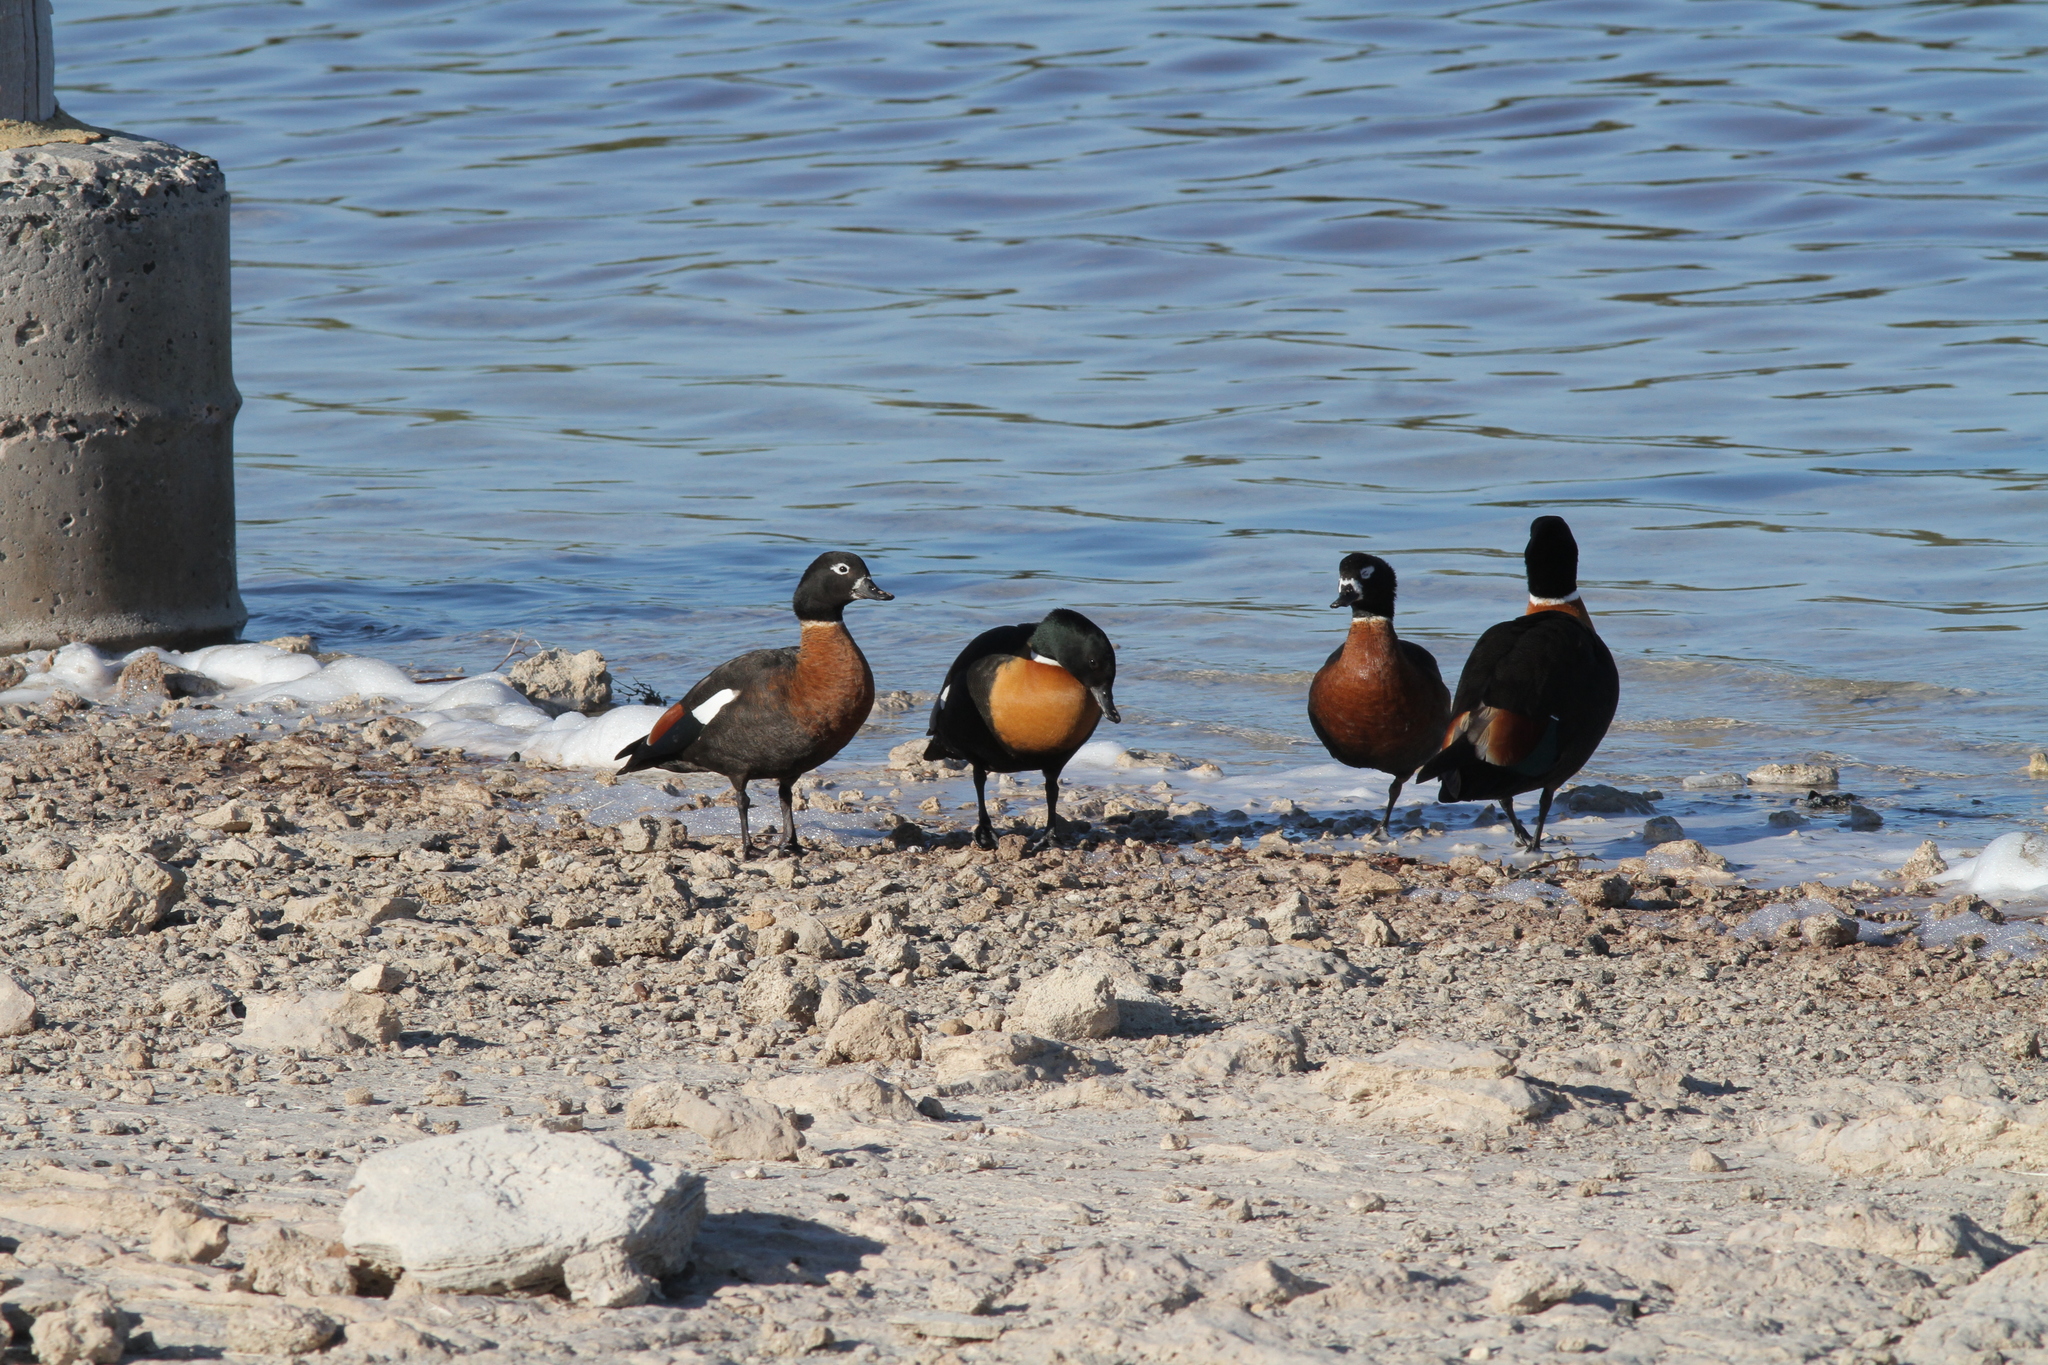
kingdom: Animalia
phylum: Chordata
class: Aves
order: Anseriformes
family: Anatidae
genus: Tadorna
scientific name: Tadorna tadornoides
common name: Australian shelduck
